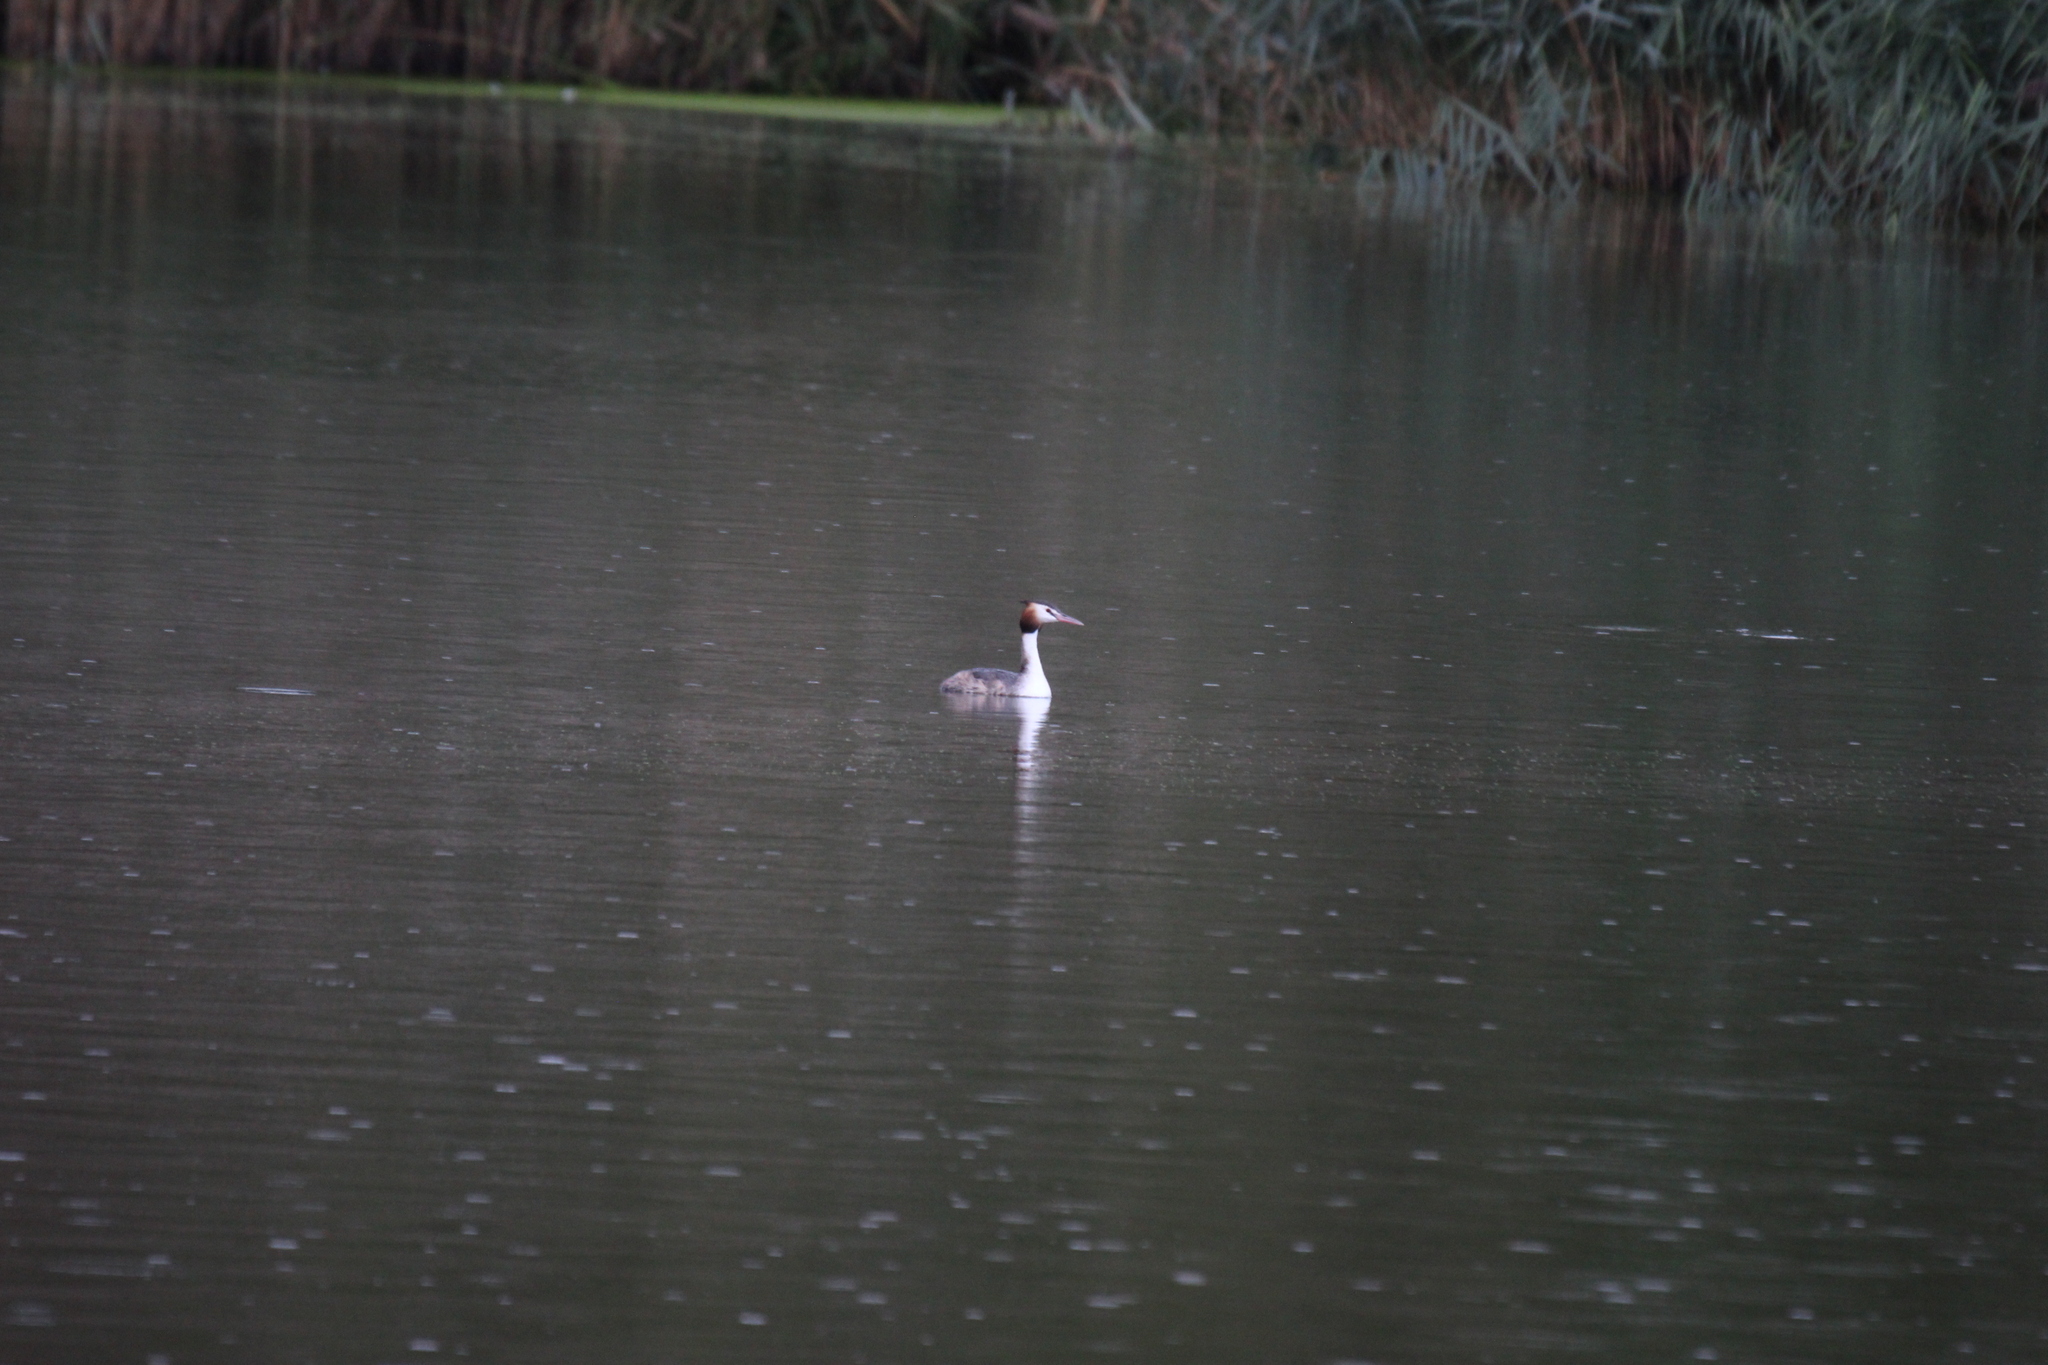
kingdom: Animalia
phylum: Chordata
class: Aves
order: Podicipediformes
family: Podicipedidae
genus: Podiceps
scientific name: Podiceps cristatus
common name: Great crested grebe
